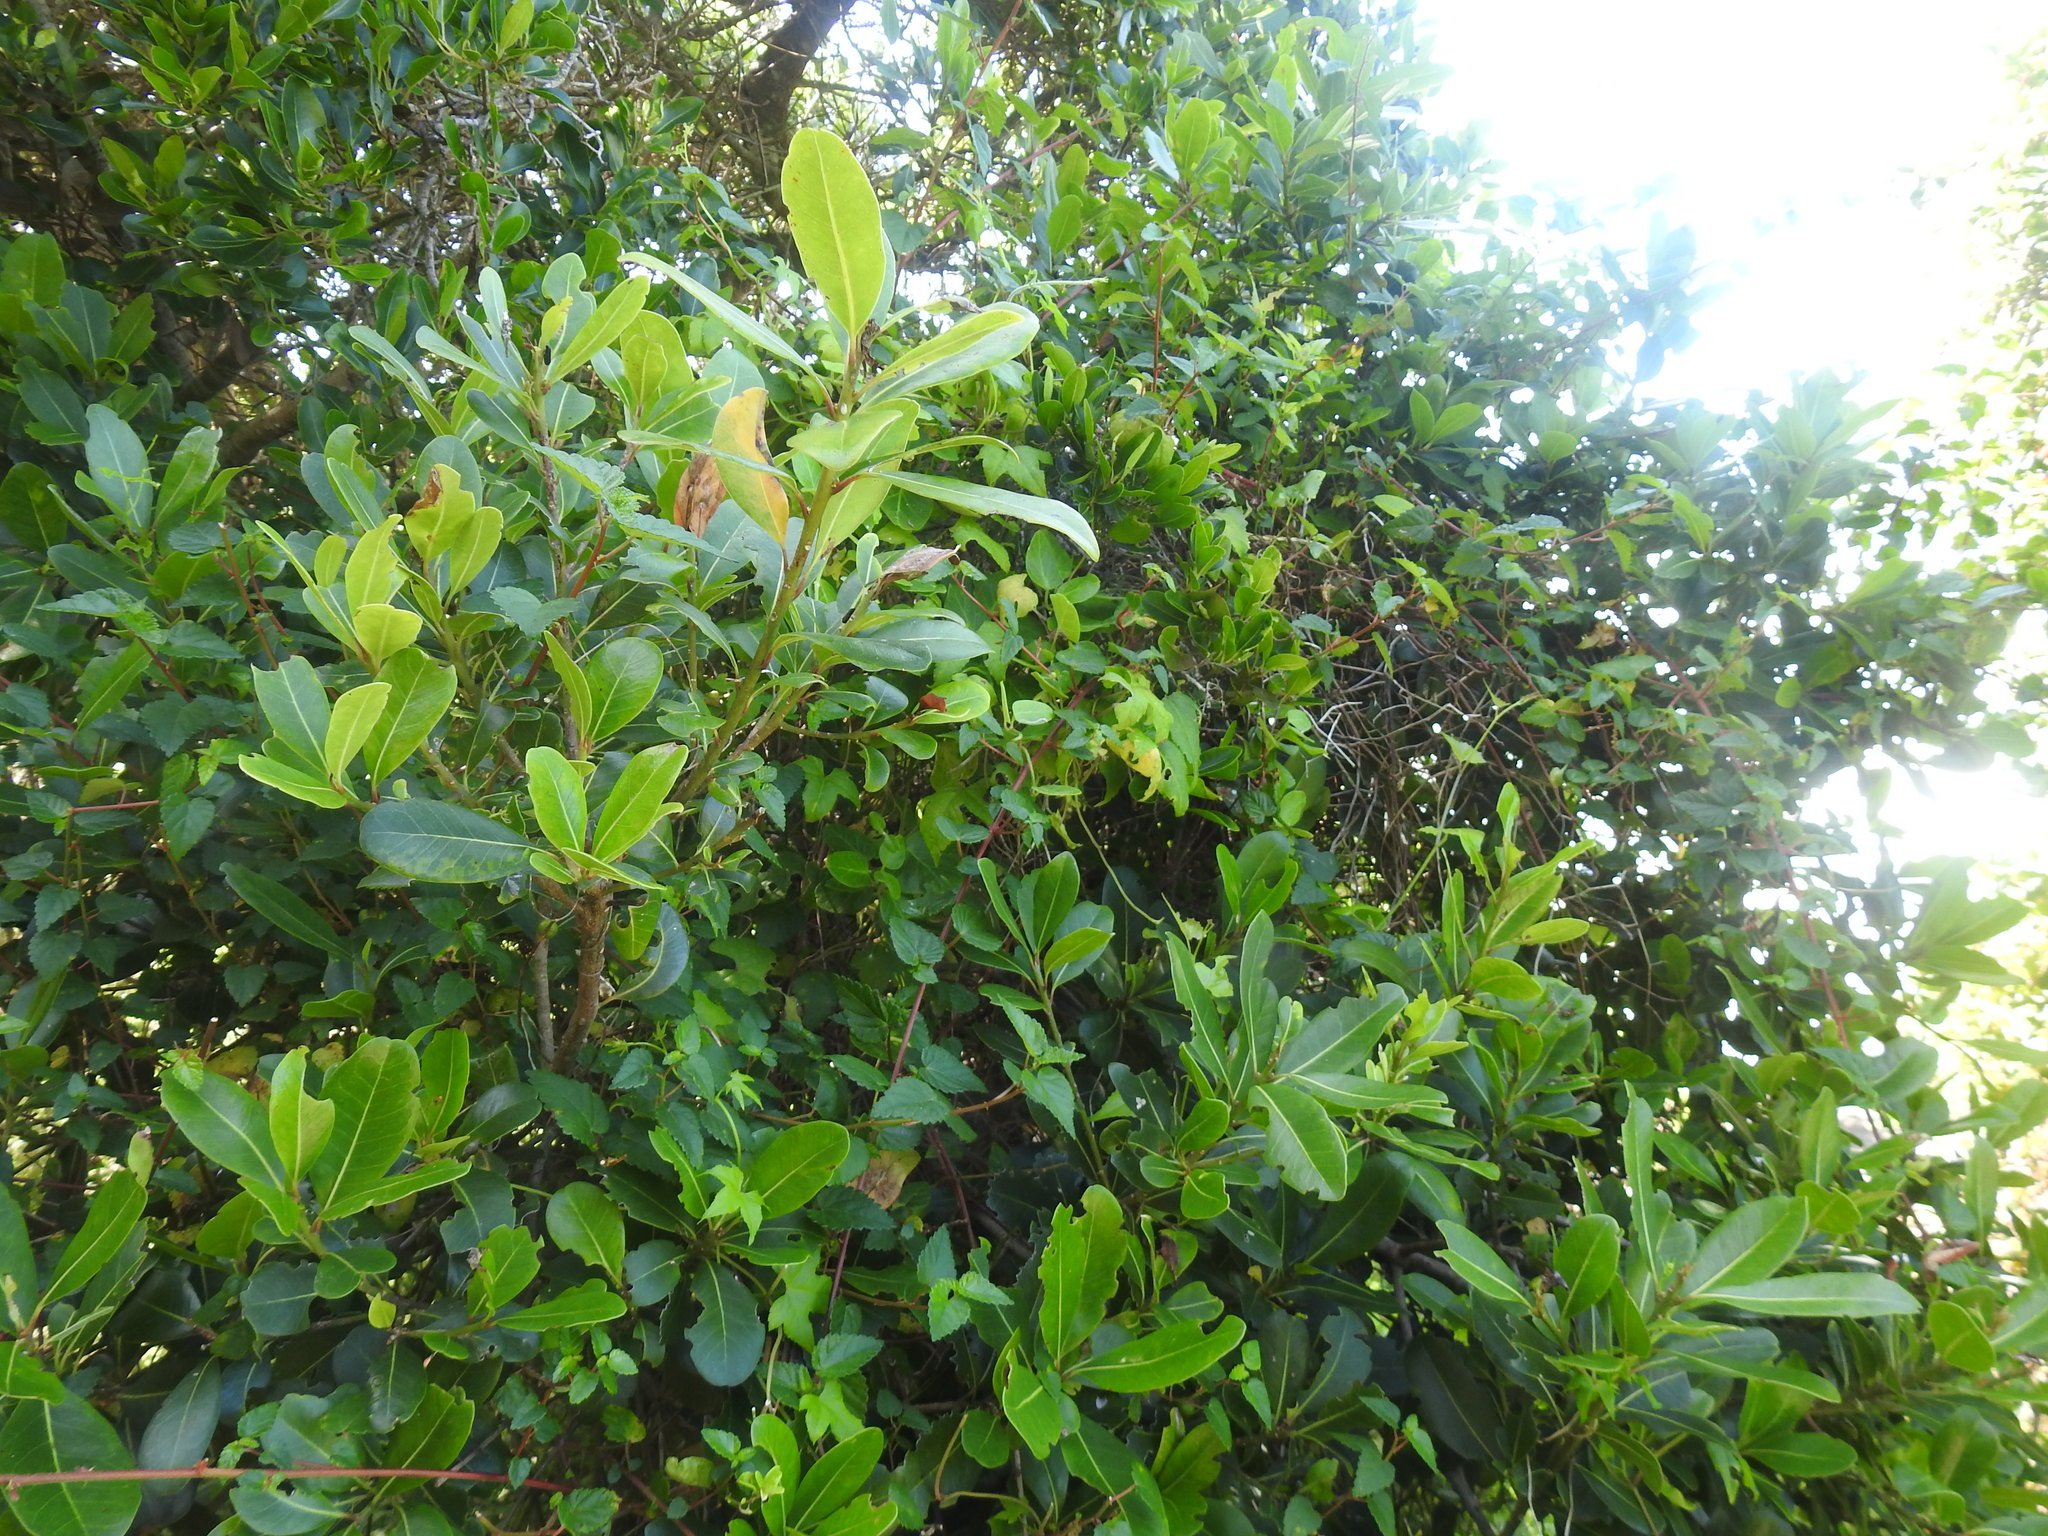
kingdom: Plantae
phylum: Tracheophyta
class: Magnoliopsida
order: Ericales
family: Sapotaceae
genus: Sideroxylon
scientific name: Sideroxylon inerme
